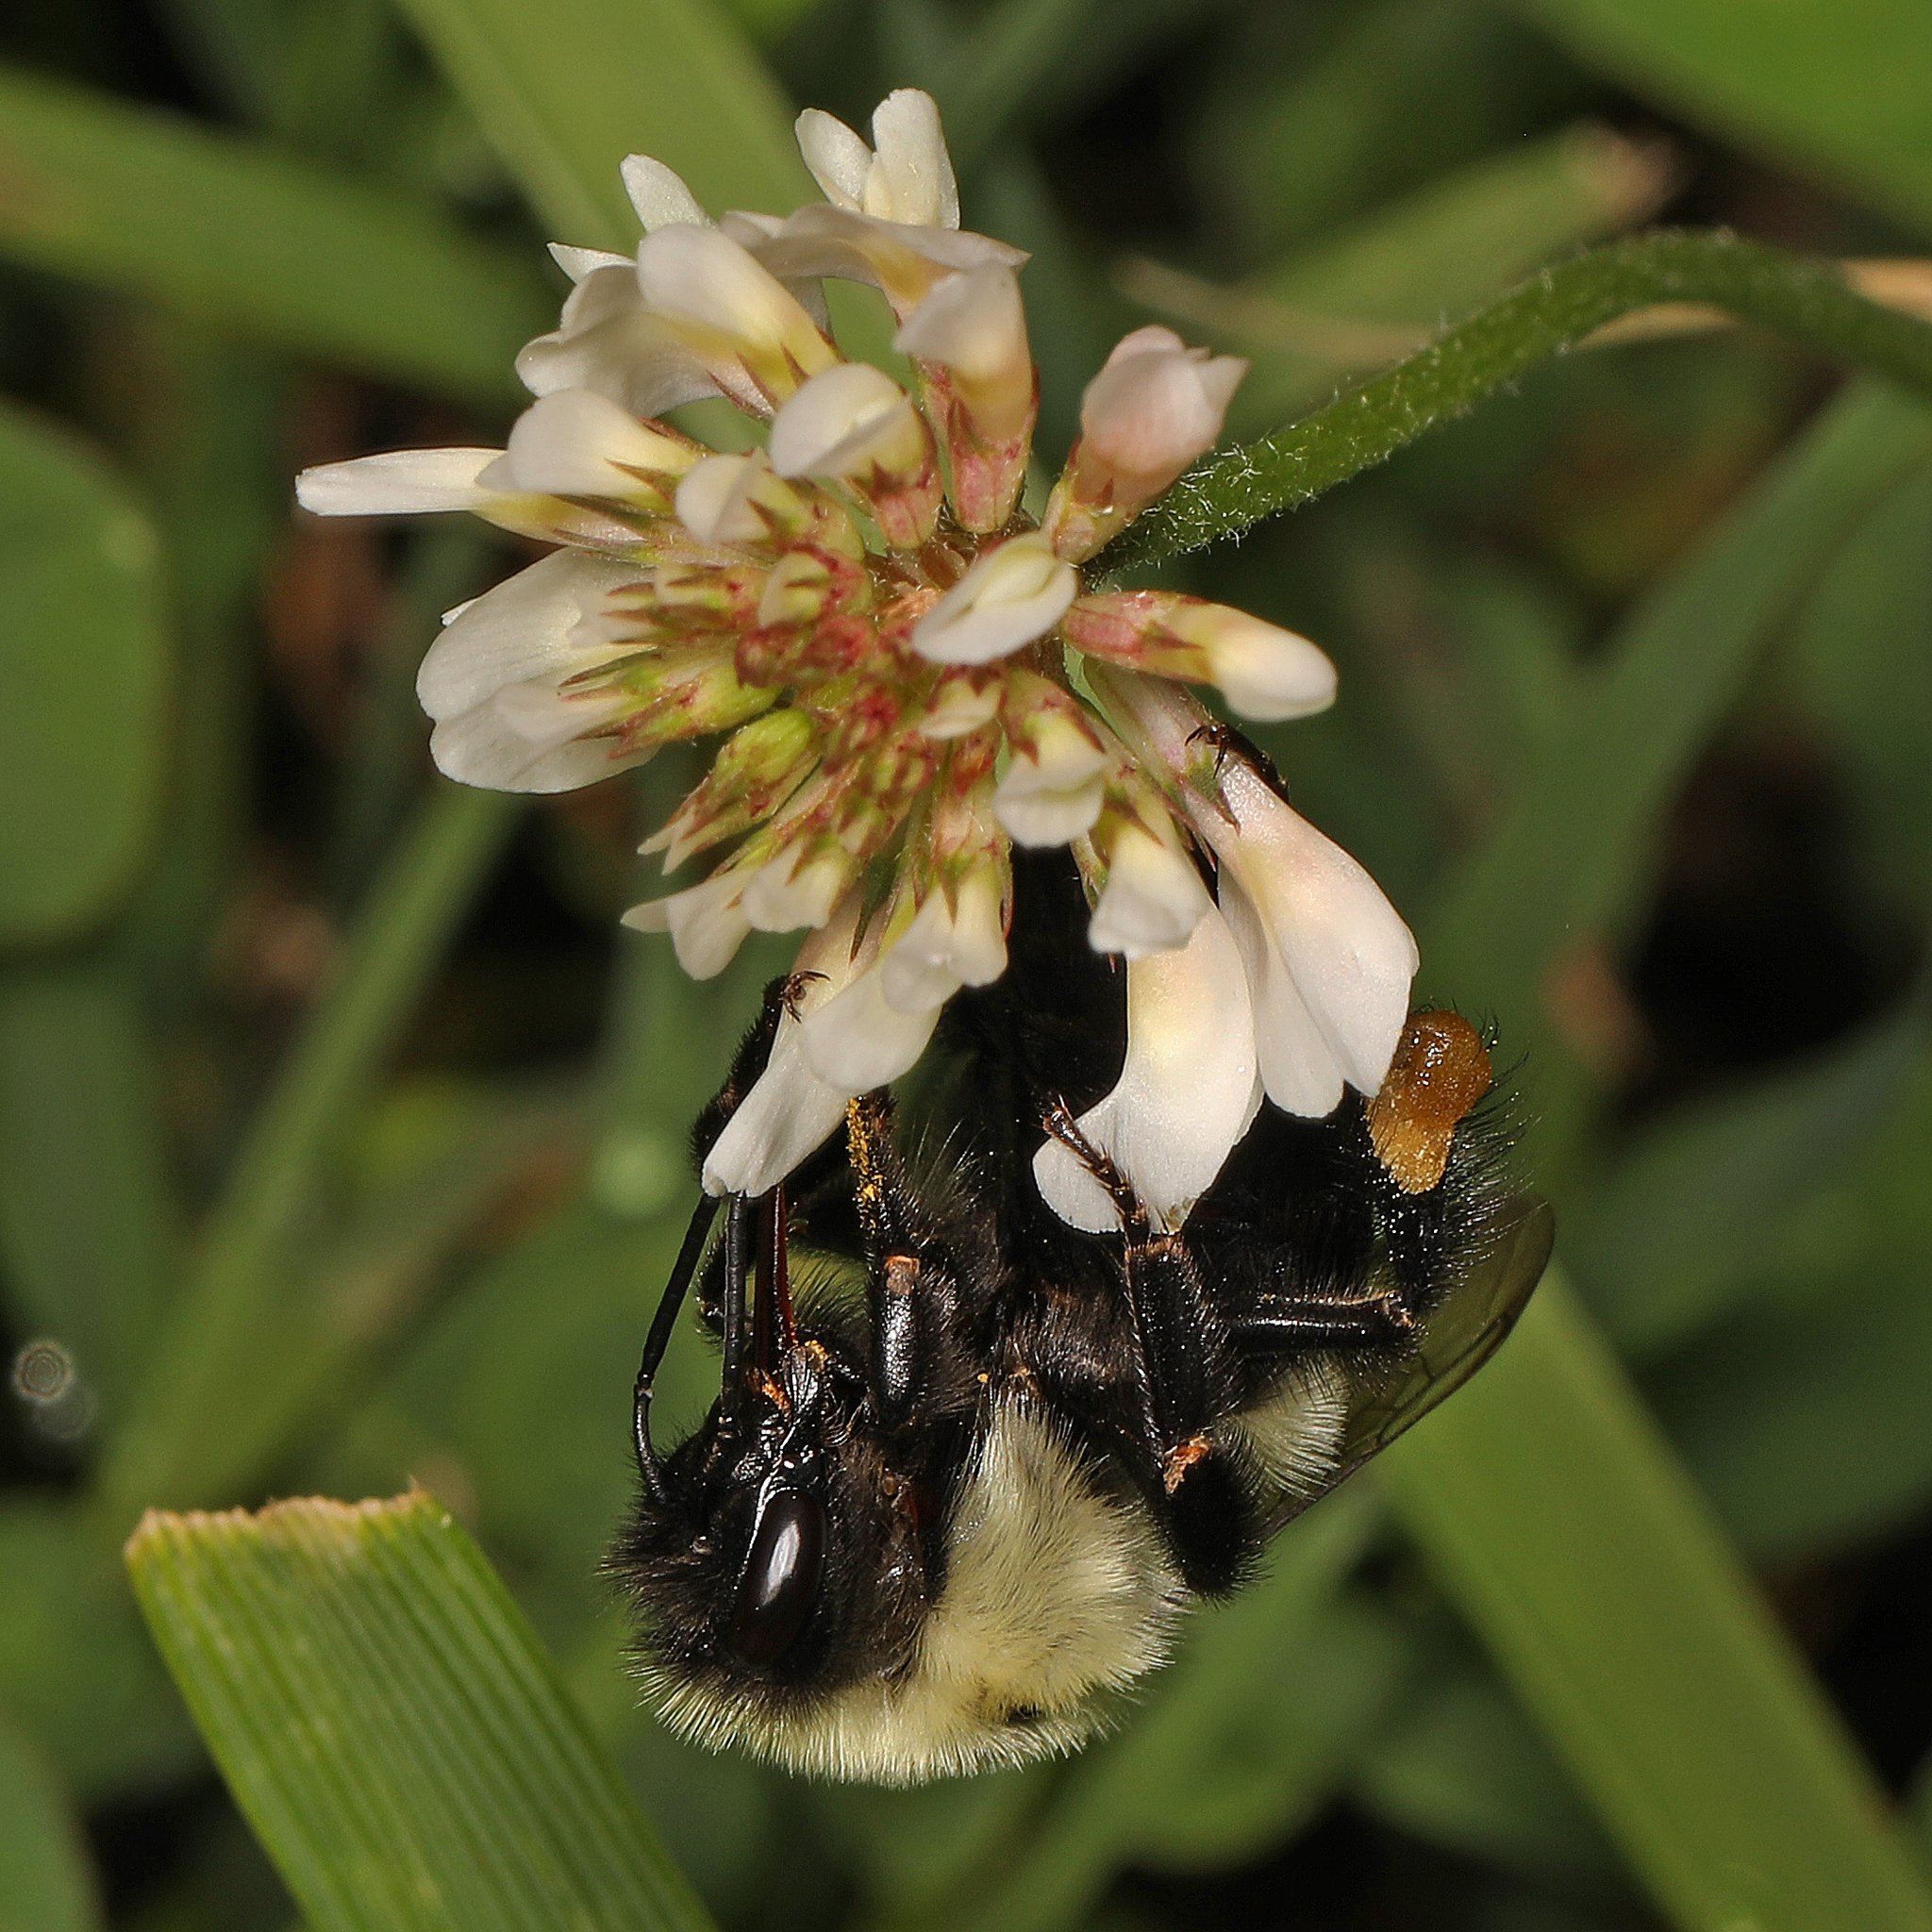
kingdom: Animalia
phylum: Arthropoda
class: Insecta
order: Hymenoptera
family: Apidae
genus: Bombus
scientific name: Bombus impatiens
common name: Common eastern bumble bee
